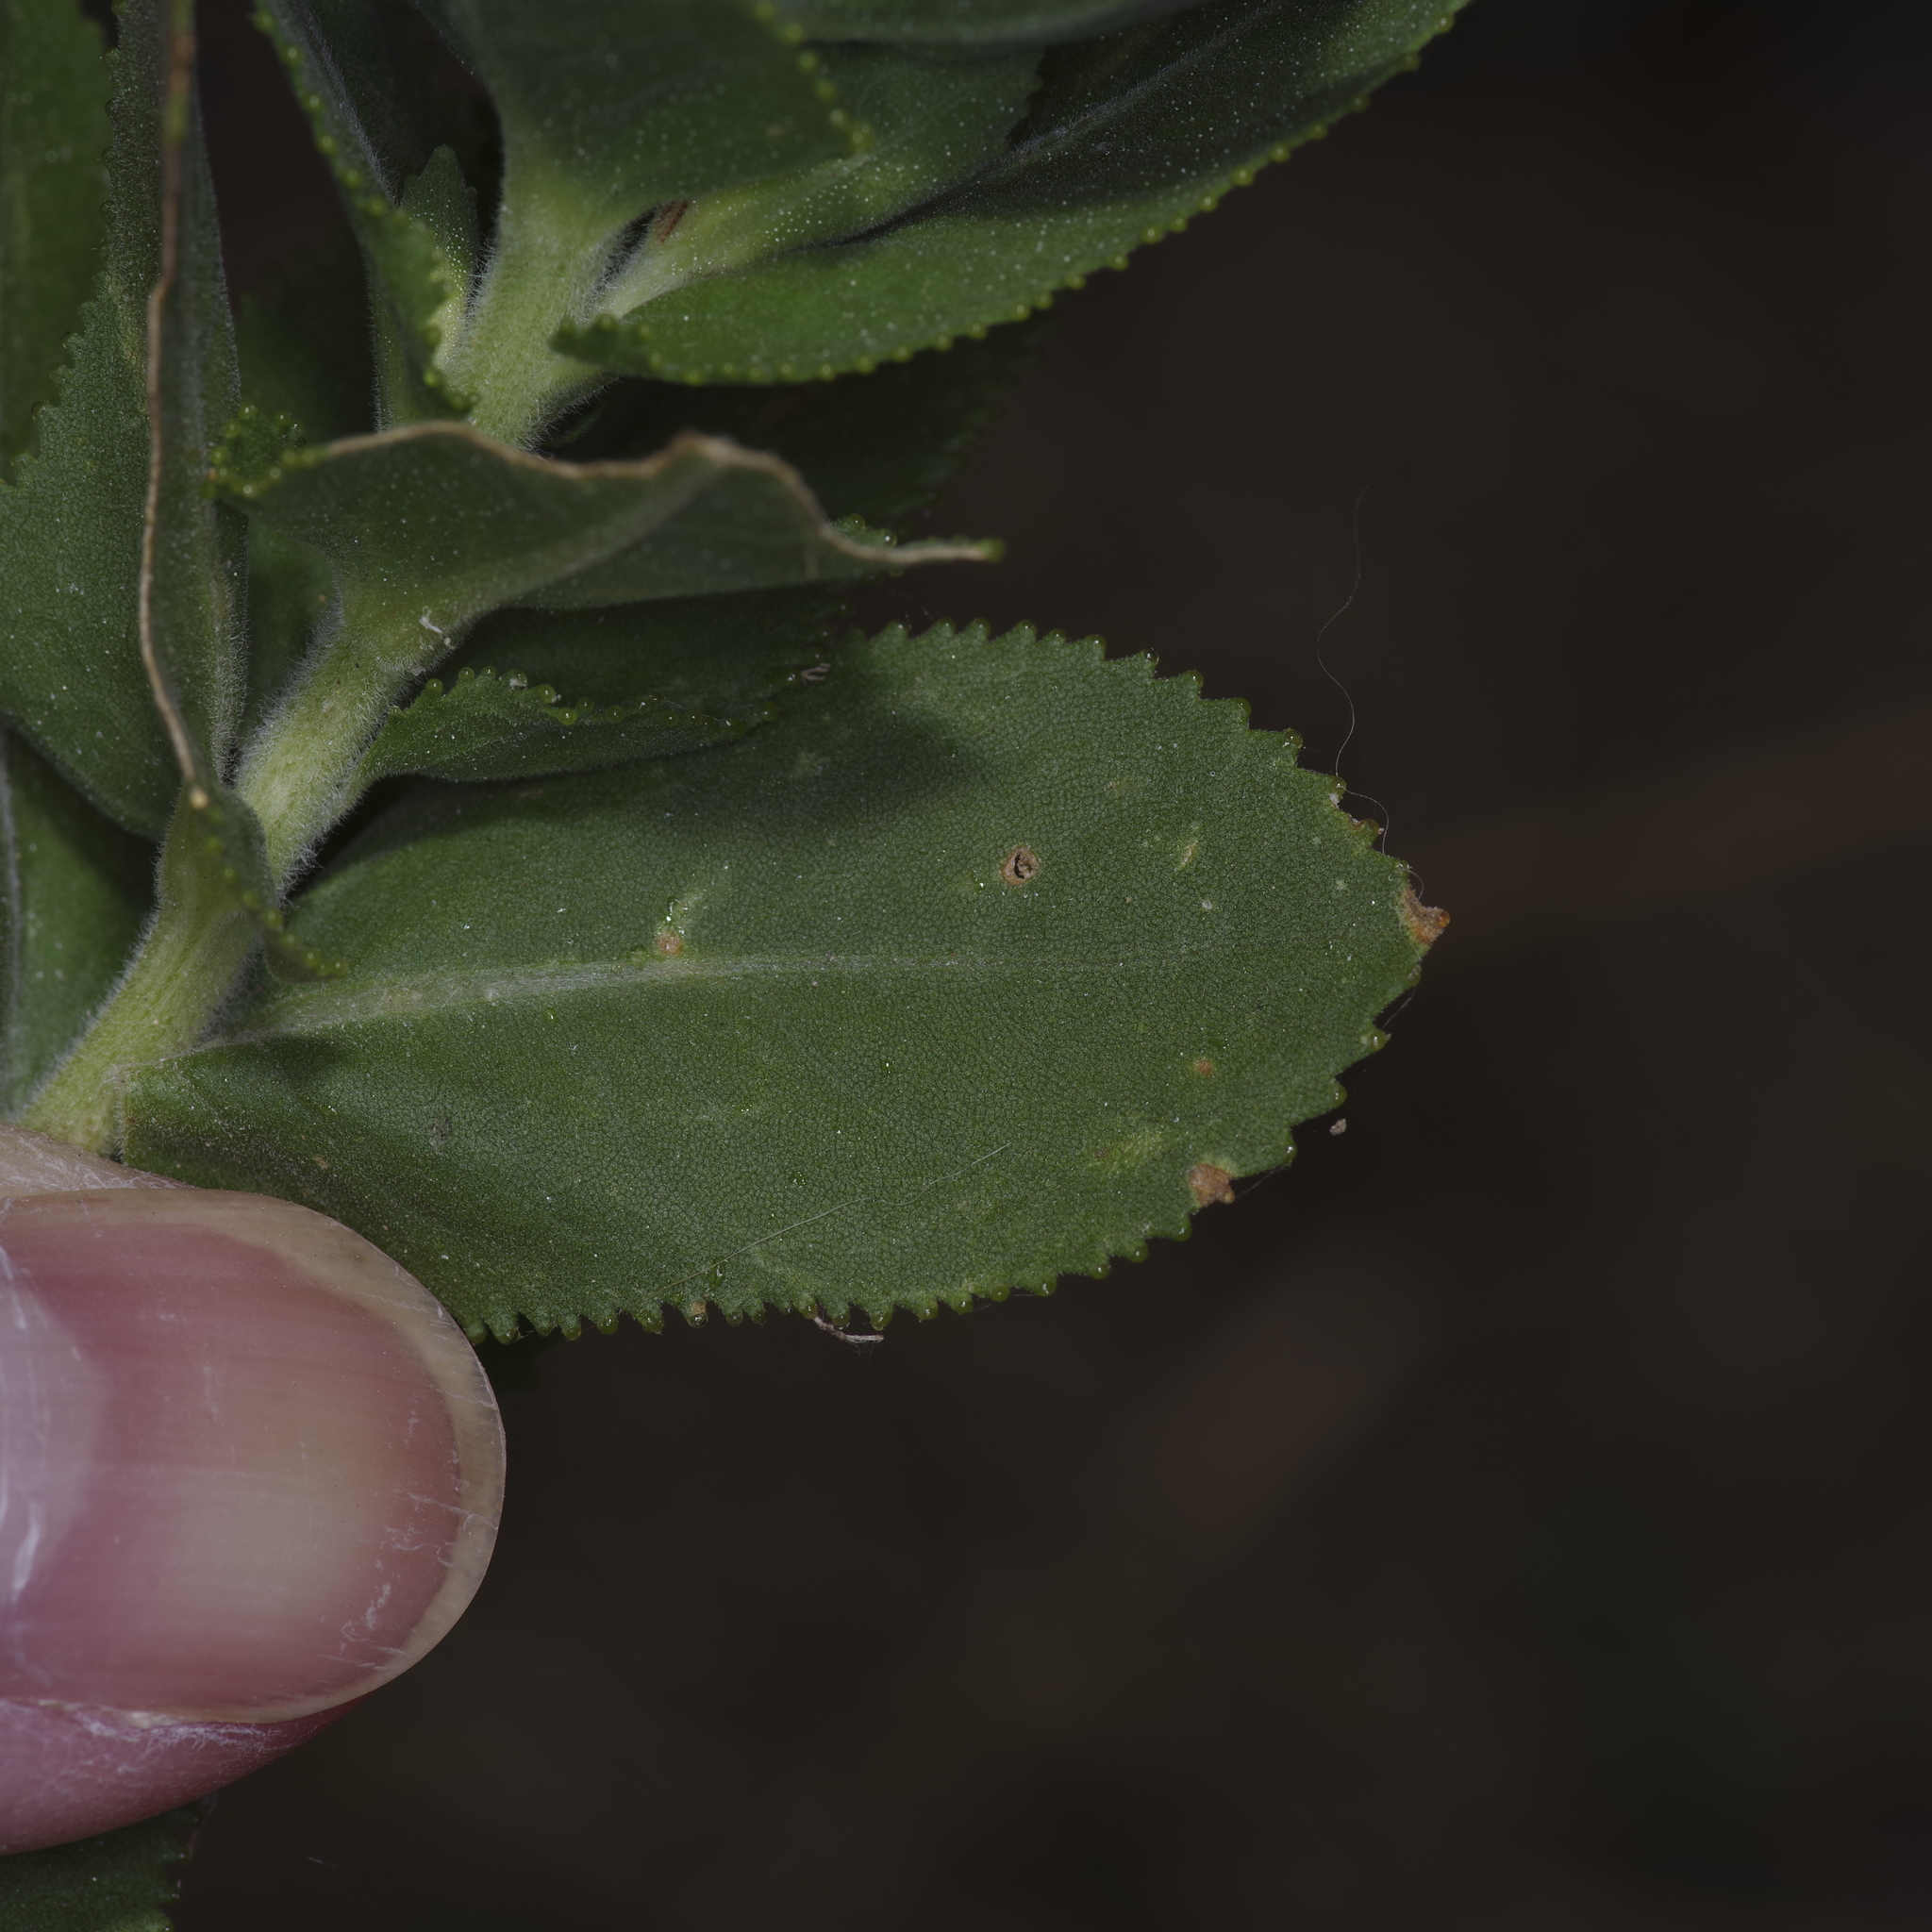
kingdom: Plantae
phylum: Tracheophyta
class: Magnoliopsida
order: Asterales
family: Asteraceae
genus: Grindelia
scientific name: Grindelia adenodonta
